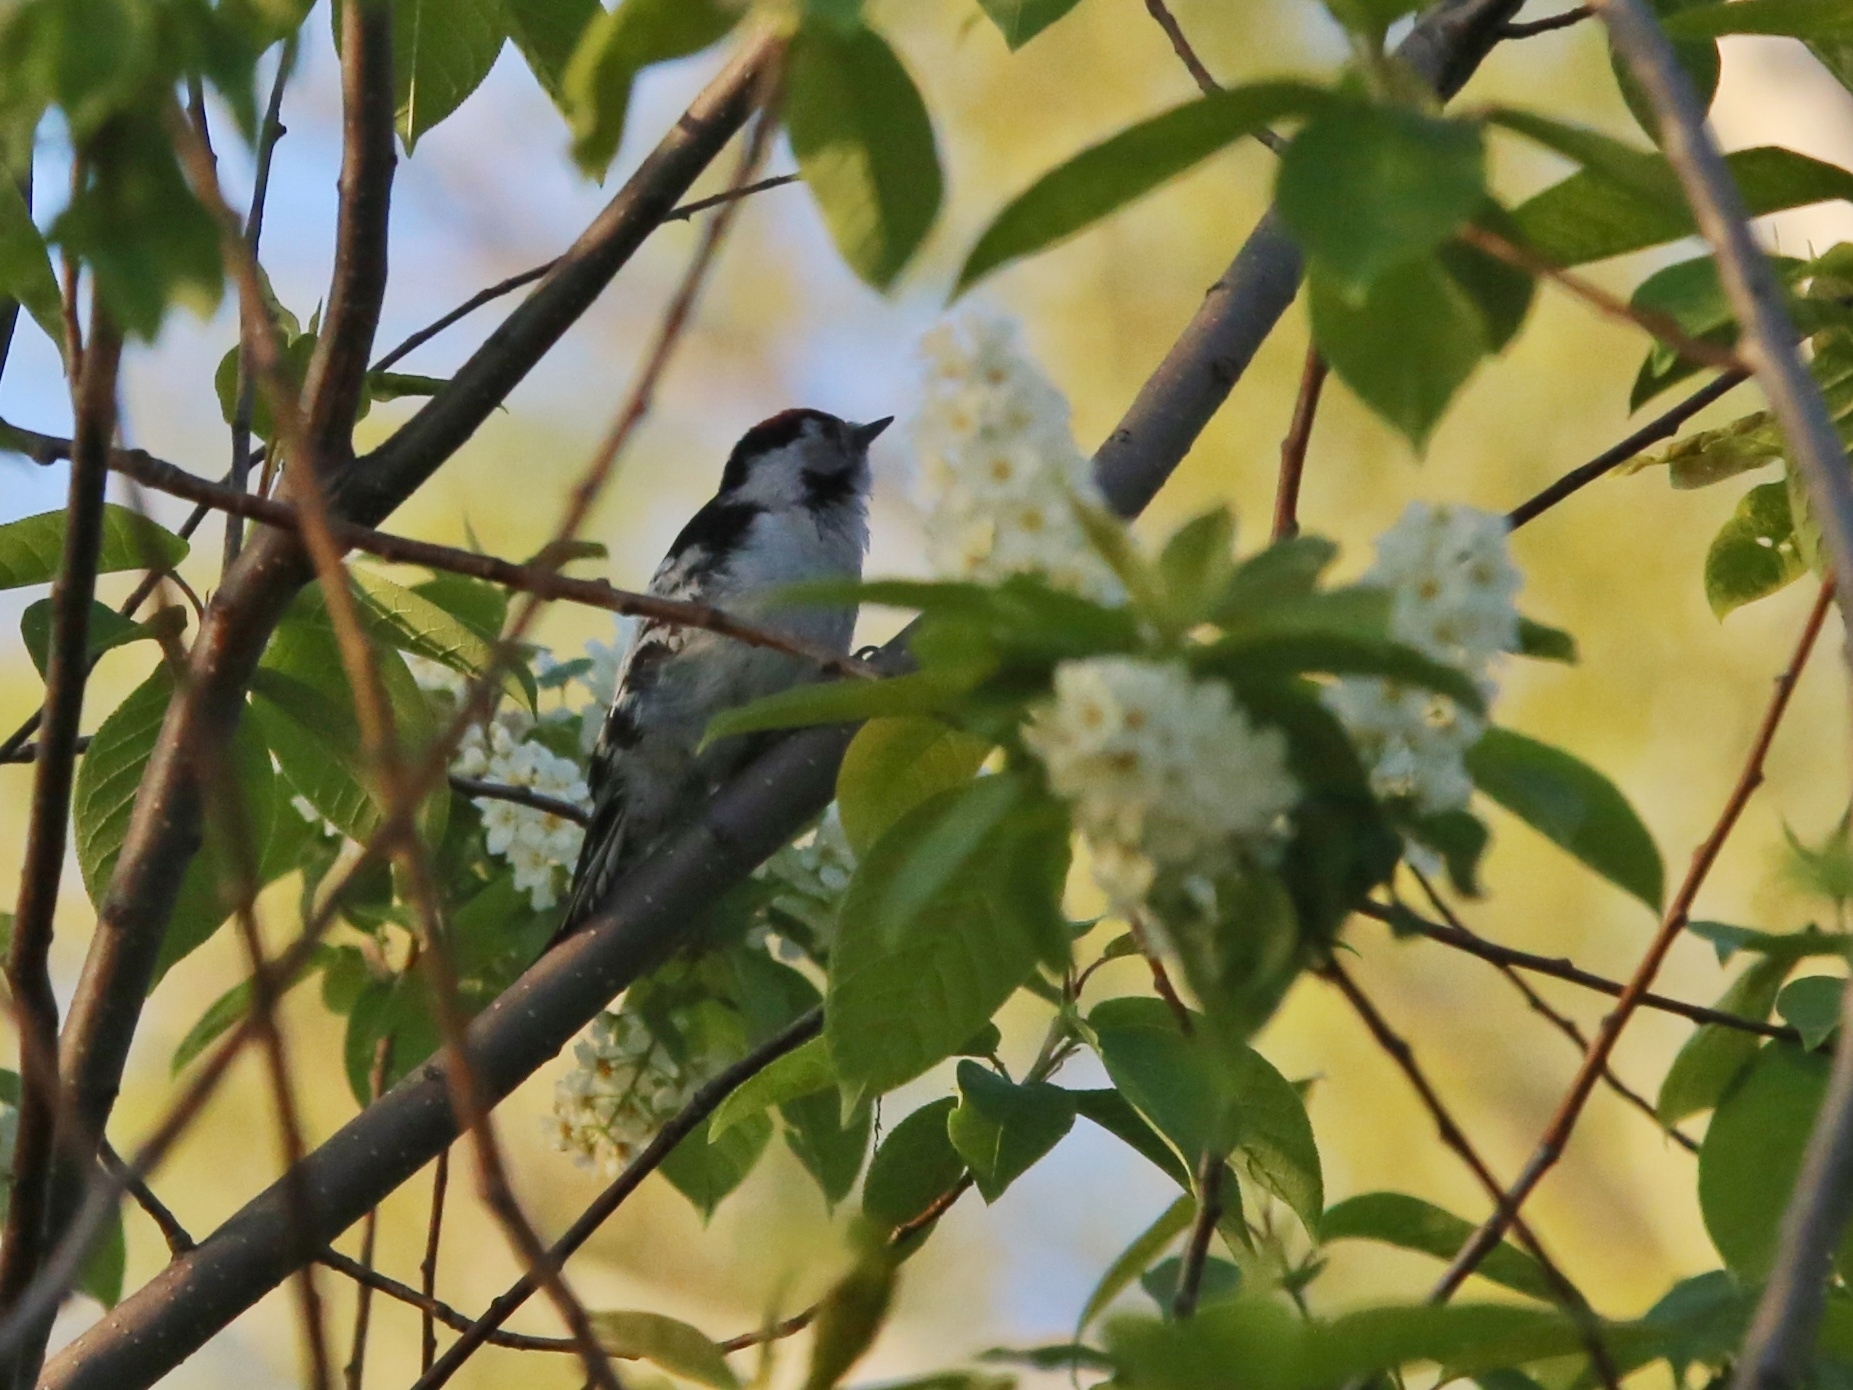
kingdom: Animalia
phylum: Chordata
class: Aves
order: Piciformes
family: Picidae
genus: Dryobates
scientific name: Dryobates minor
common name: Lesser spotted woodpecker
